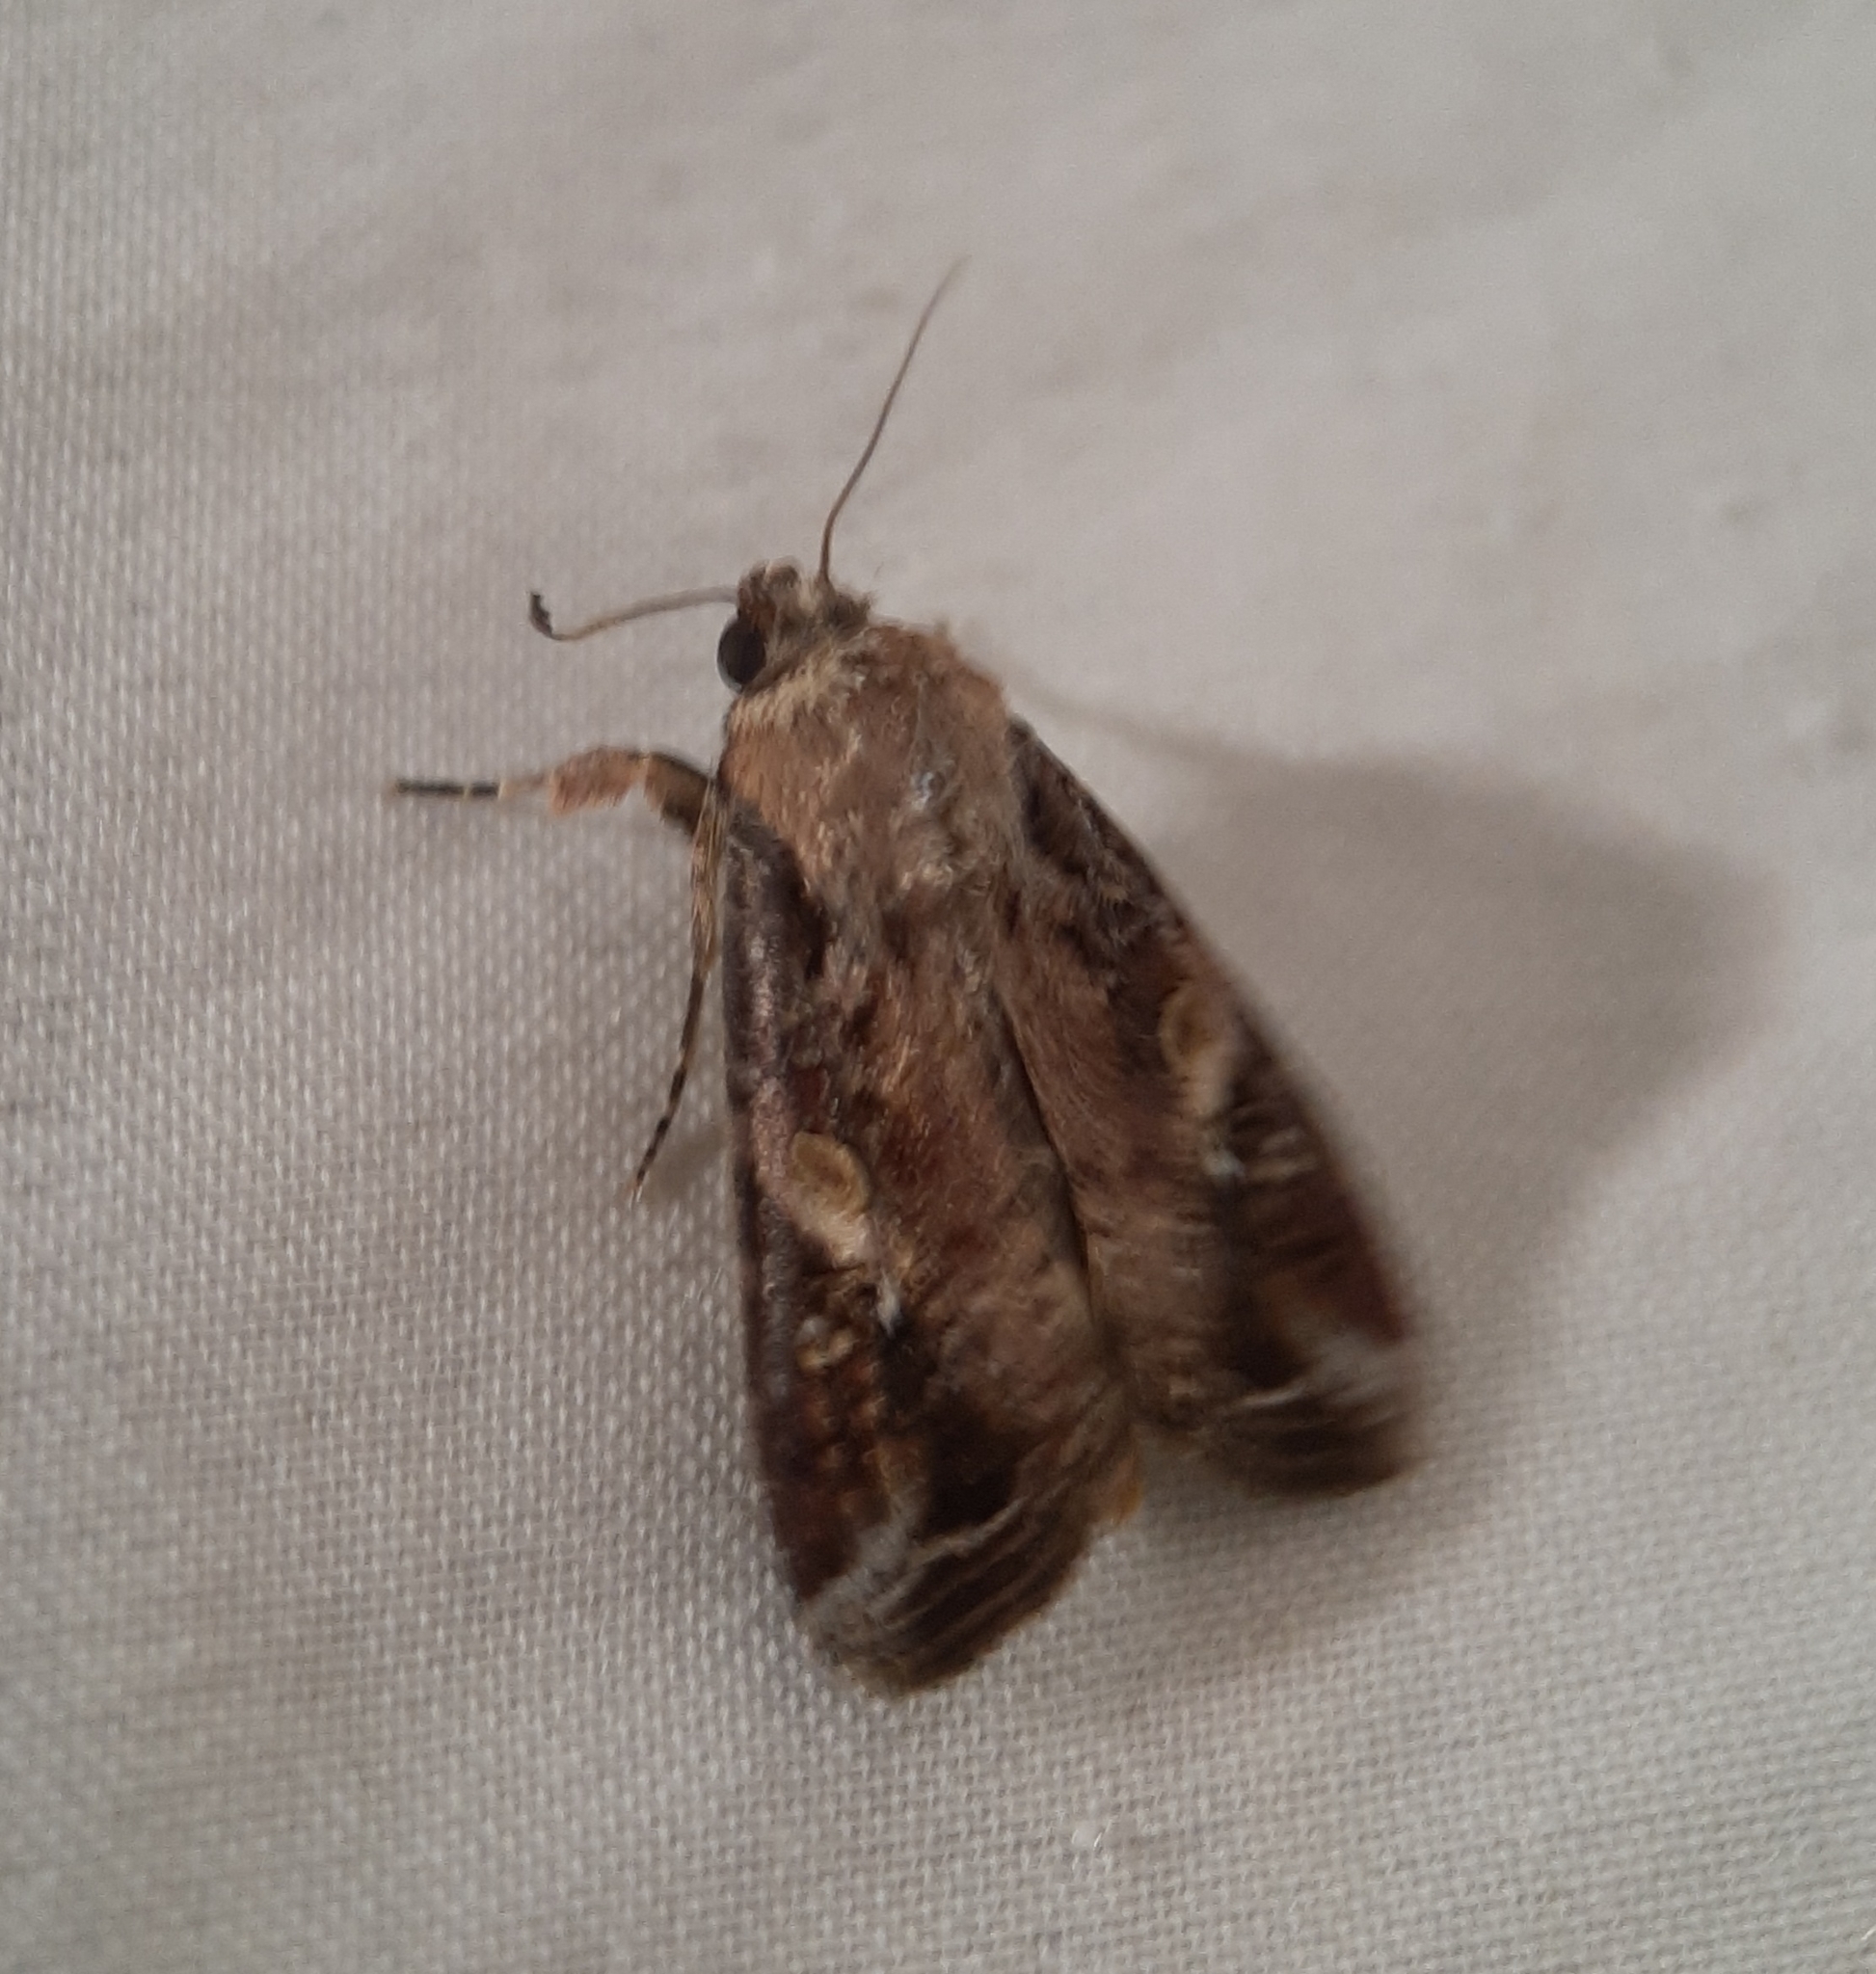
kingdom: Animalia
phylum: Arthropoda
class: Insecta
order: Lepidoptera
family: Noctuidae
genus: Spodoptera
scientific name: Spodoptera frugiperda
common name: Fall armyworm
